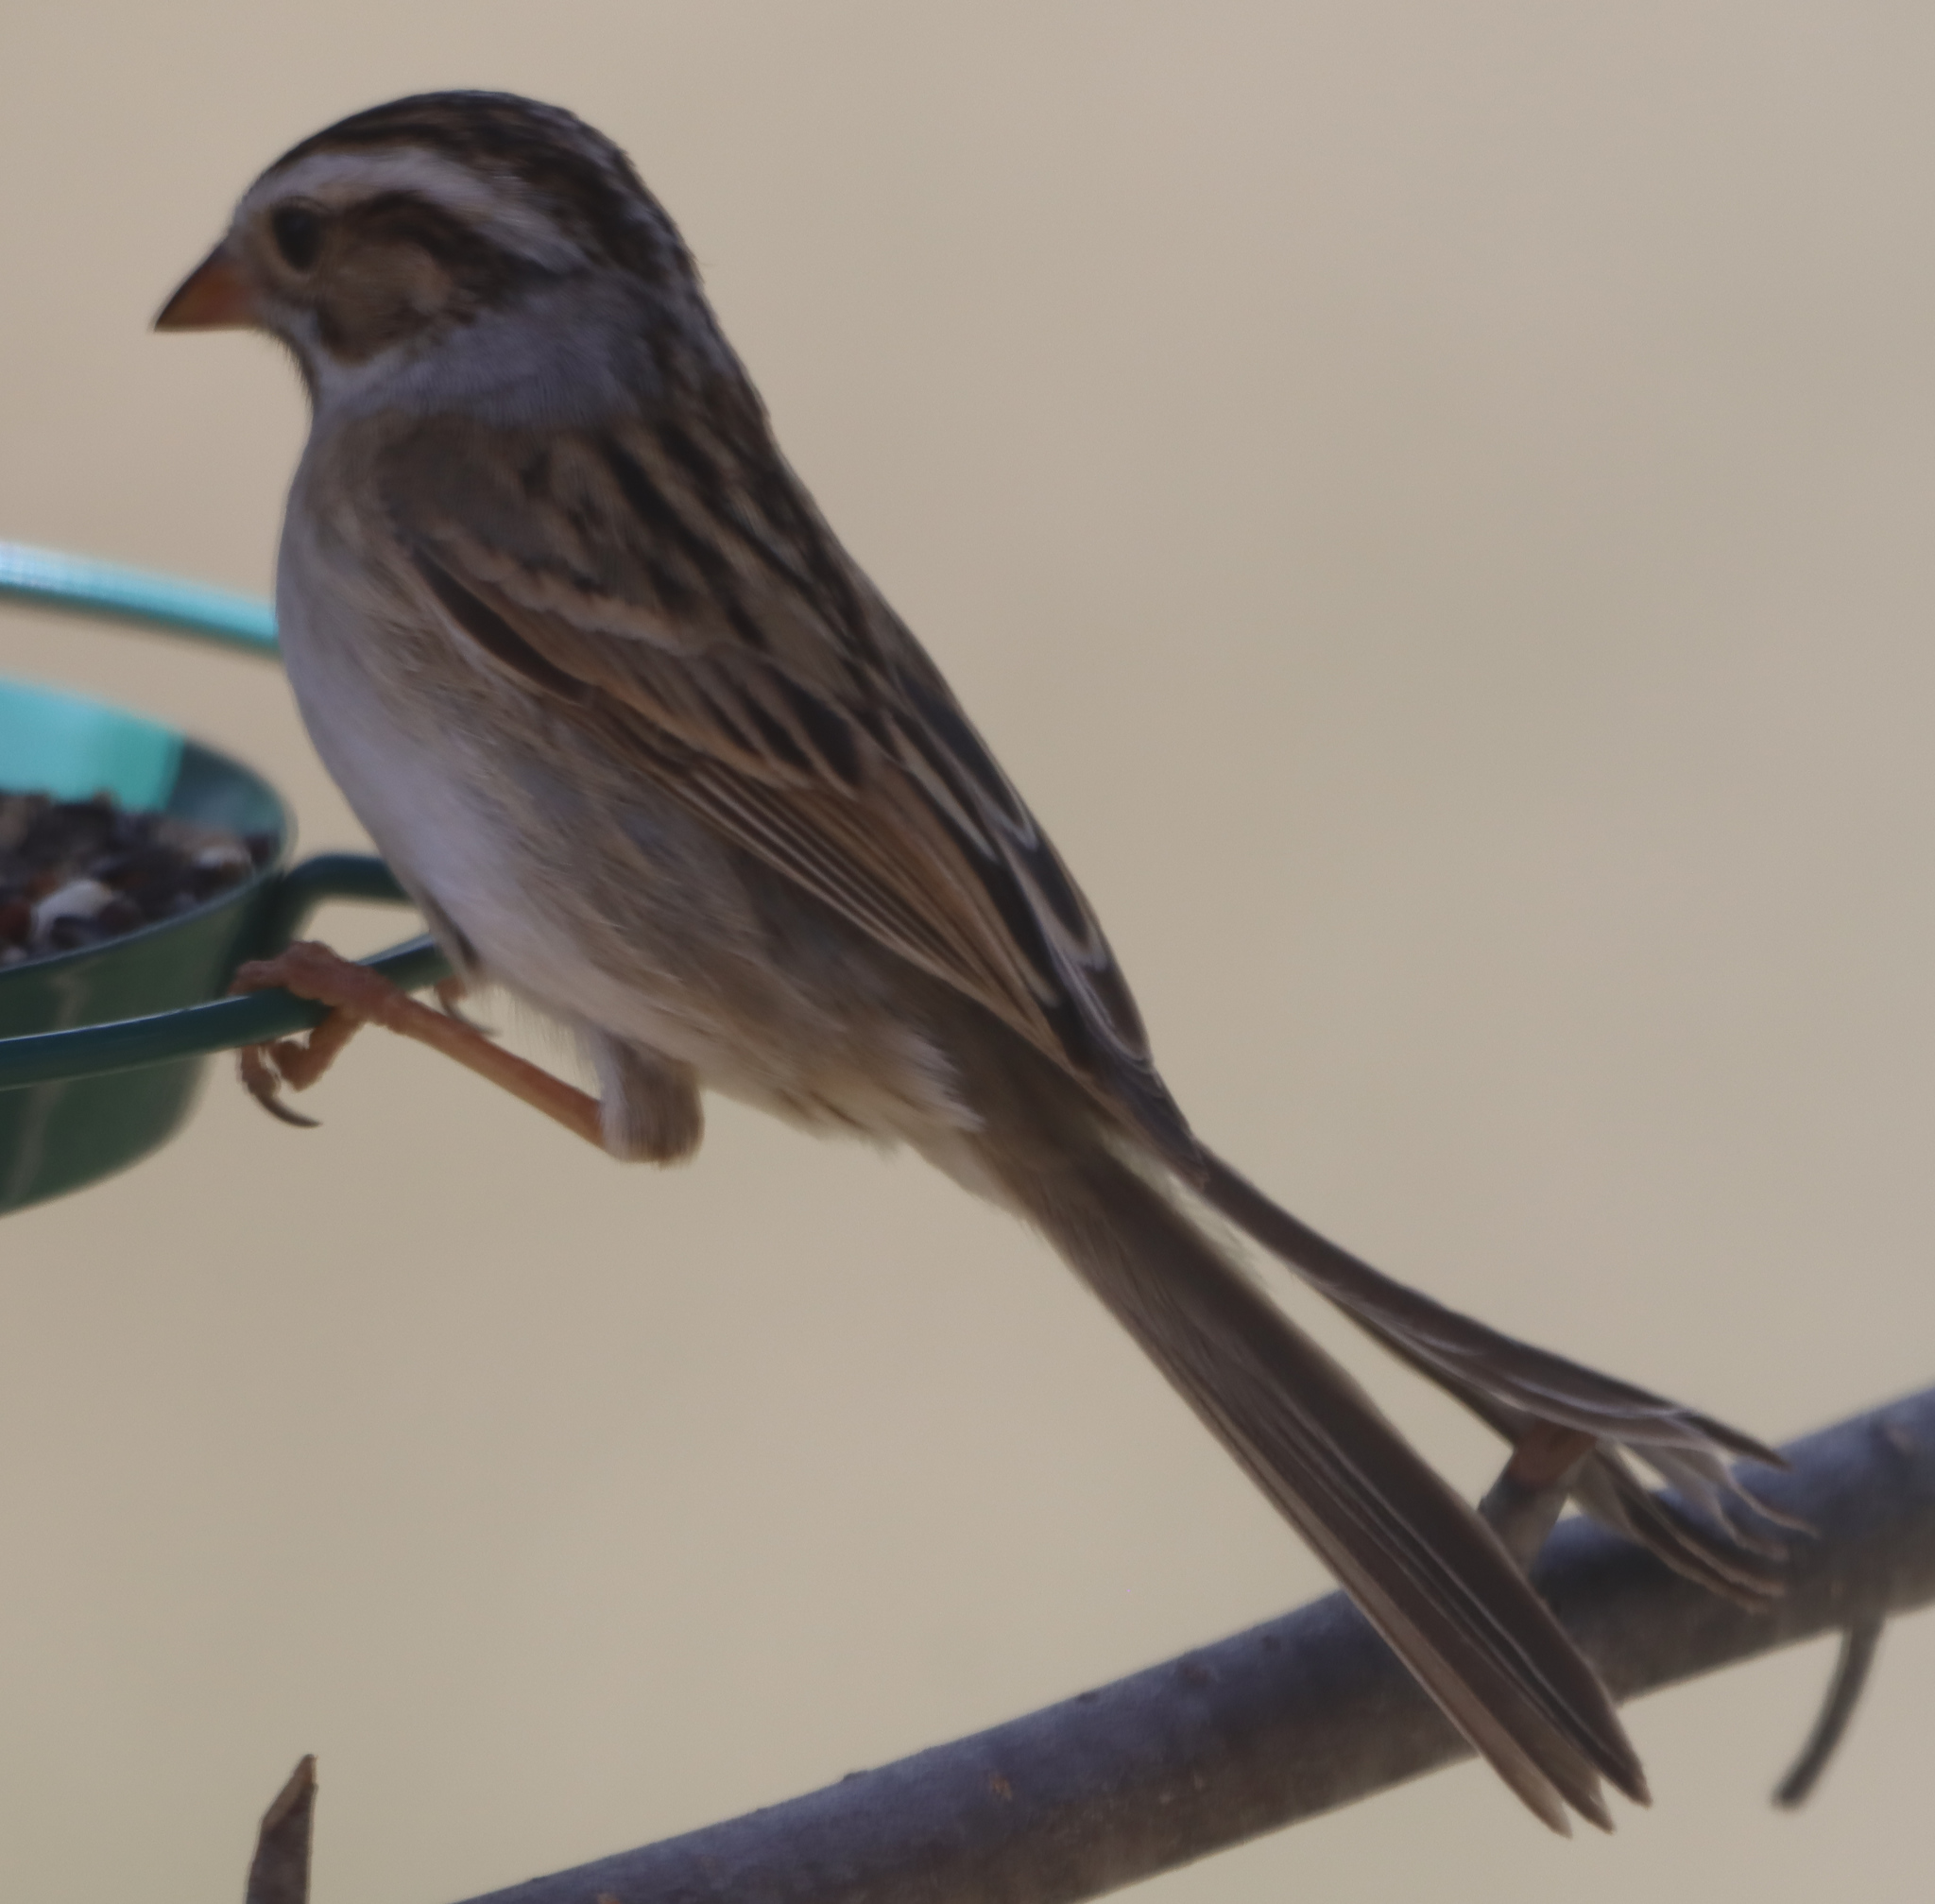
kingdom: Animalia
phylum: Chordata
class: Aves
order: Passeriformes
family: Passerellidae
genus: Spizella
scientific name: Spizella pallida
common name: Clay-colored sparrow
